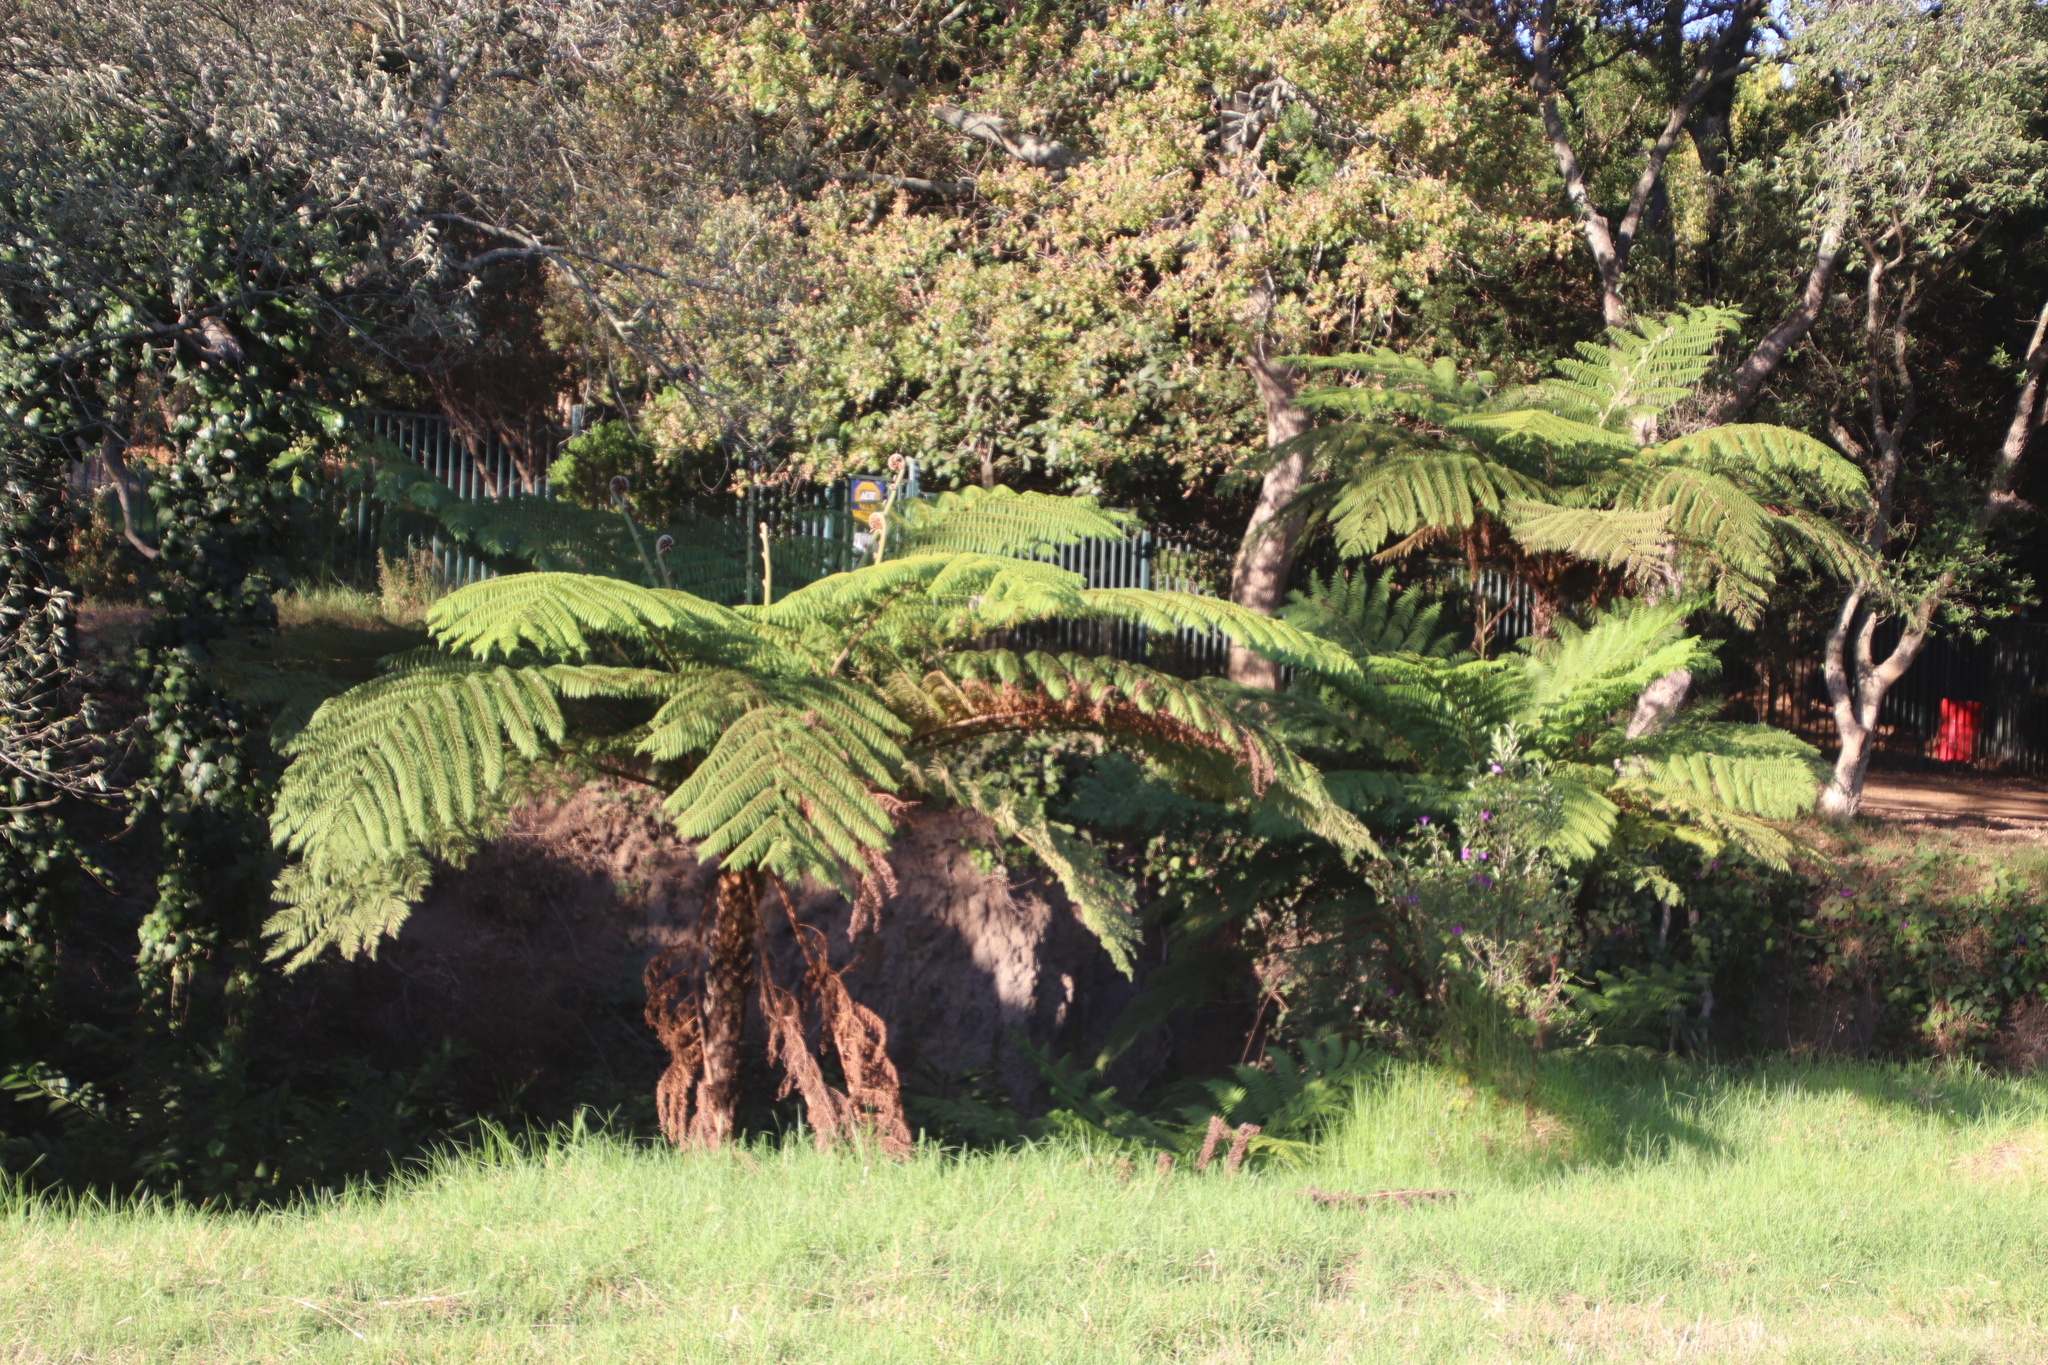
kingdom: Plantae
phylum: Tracheophyta
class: Polypodiopsida
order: Cyatheales
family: Cyatheaceae
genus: Sphaeropteris
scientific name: Sphaeropteris cooperi
